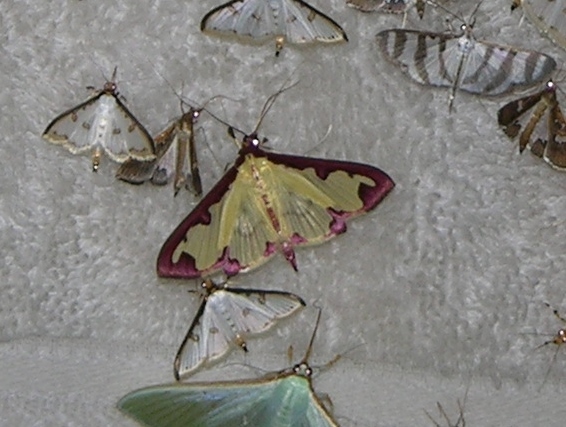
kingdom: Animalia
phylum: Arthropoda
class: Insecta
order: Lepidoptera
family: Crambidae
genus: Cadarena
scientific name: Cadarena pudoraria
